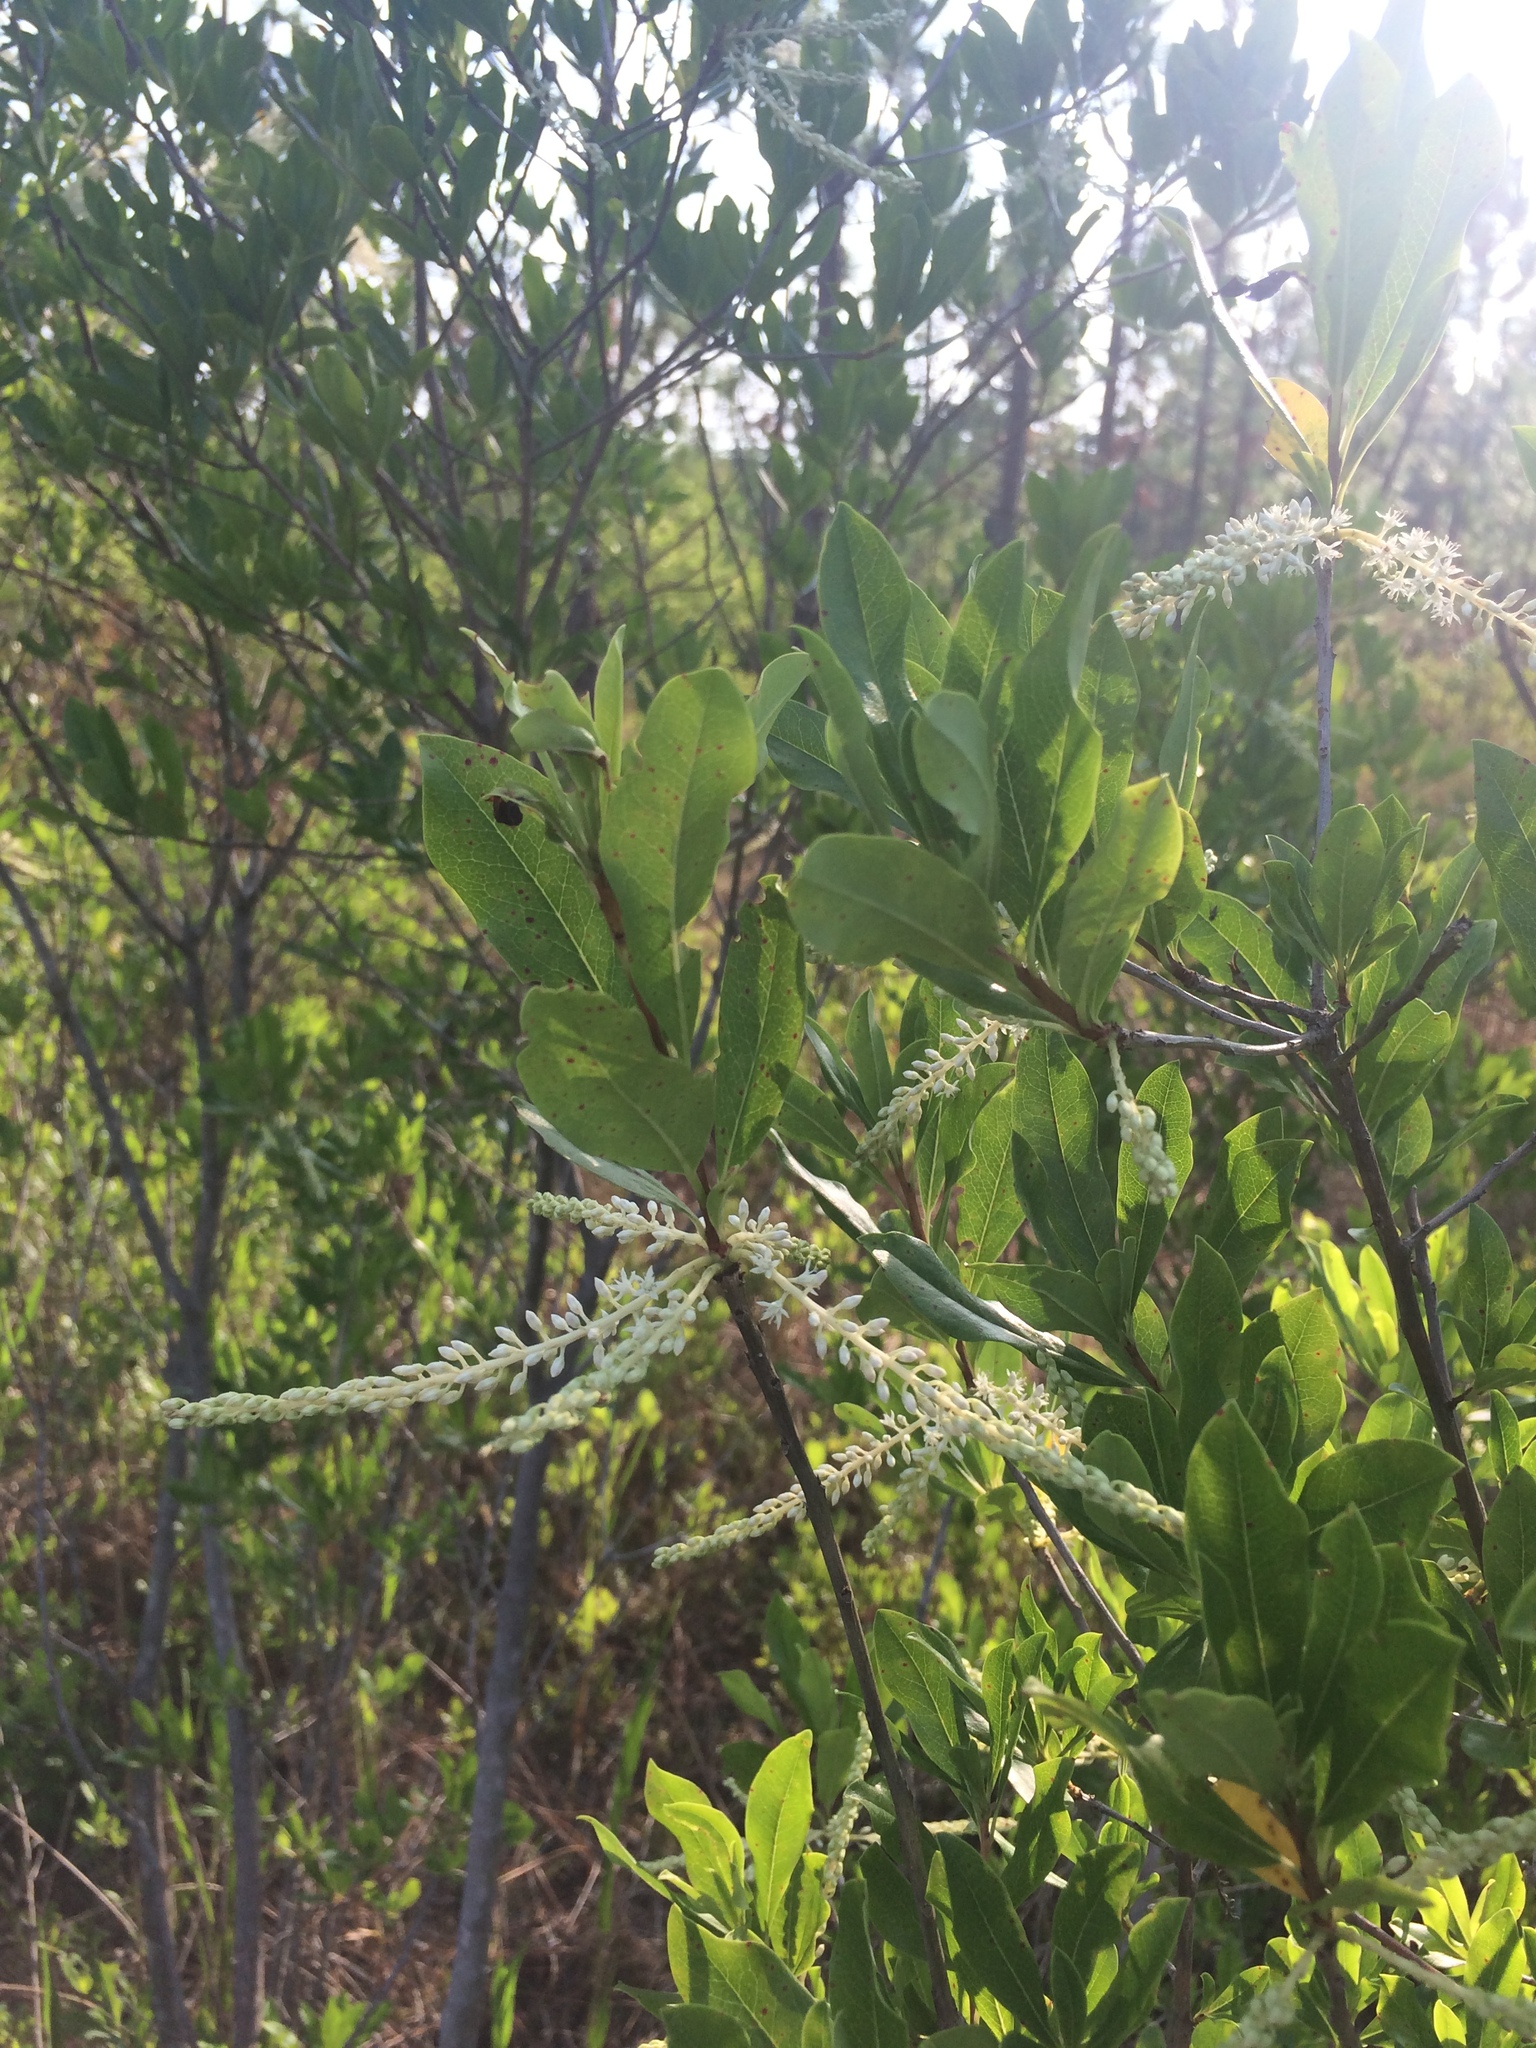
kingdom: Plantae
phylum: Tracheophyta
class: Magnoliopsida
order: Ericales
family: Cyrillaceae
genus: Cyrilla
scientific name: Cyrilla racemiflora
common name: Black titi
